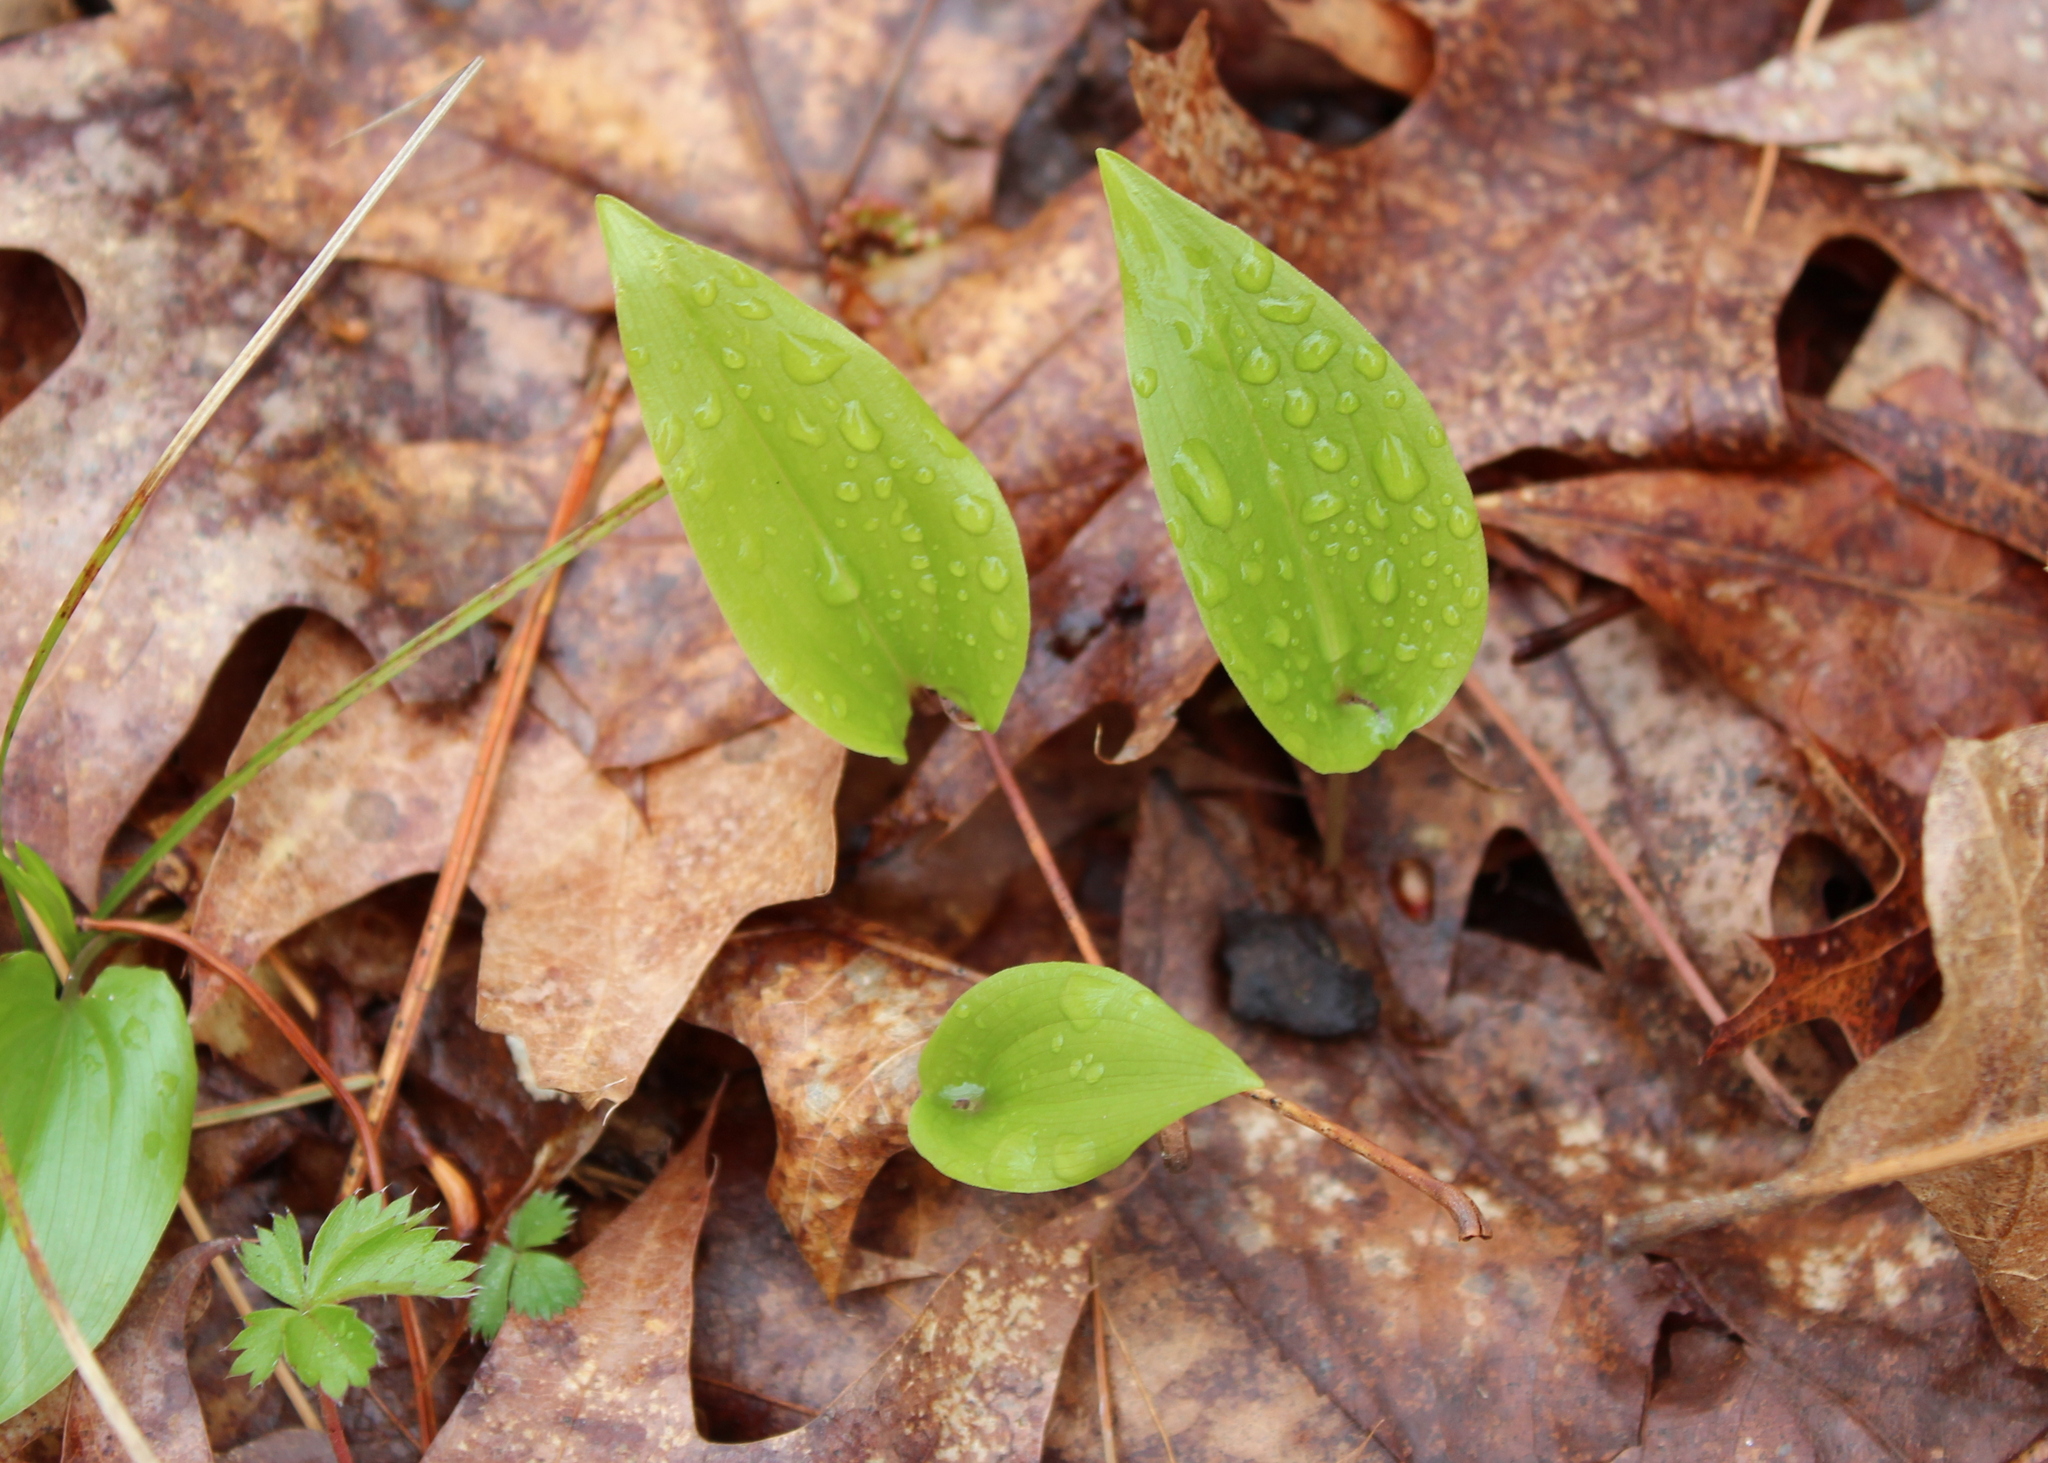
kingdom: Plantae
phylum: Tracheophyta
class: Liliopsida
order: Asparagales
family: Asparagaceae
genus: Maianthemum
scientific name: Maianthemum canadense
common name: False lily-of-the-valley
